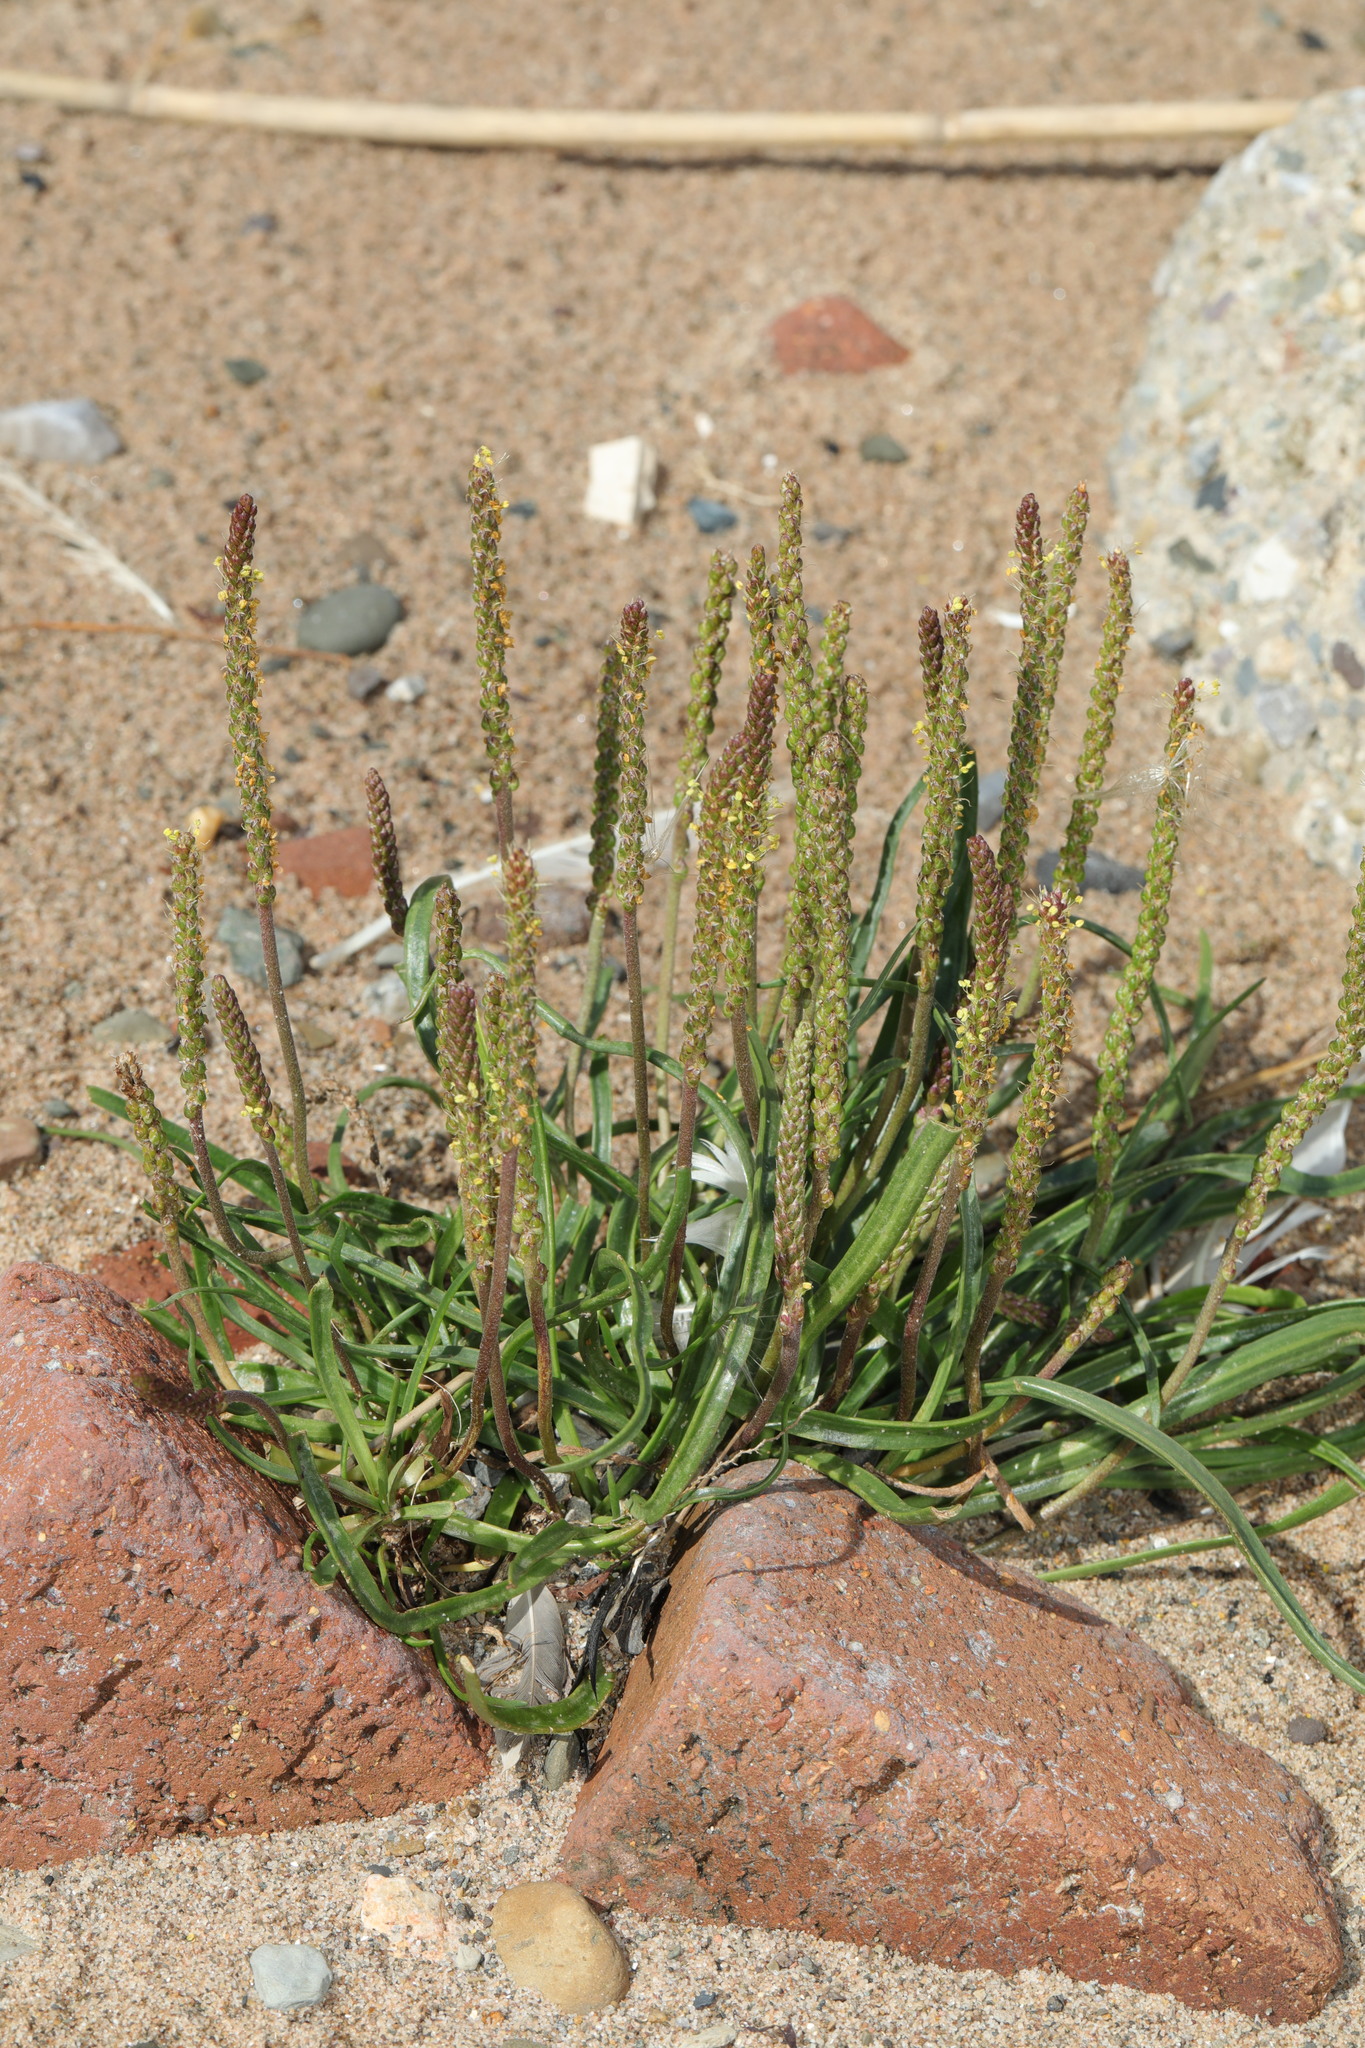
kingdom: Plantae
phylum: Tracheophyta
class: Magnoliopsida
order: Lamiales
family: Plantaginaceae
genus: Plantago
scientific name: Plantago maritima
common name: Sea plantain
